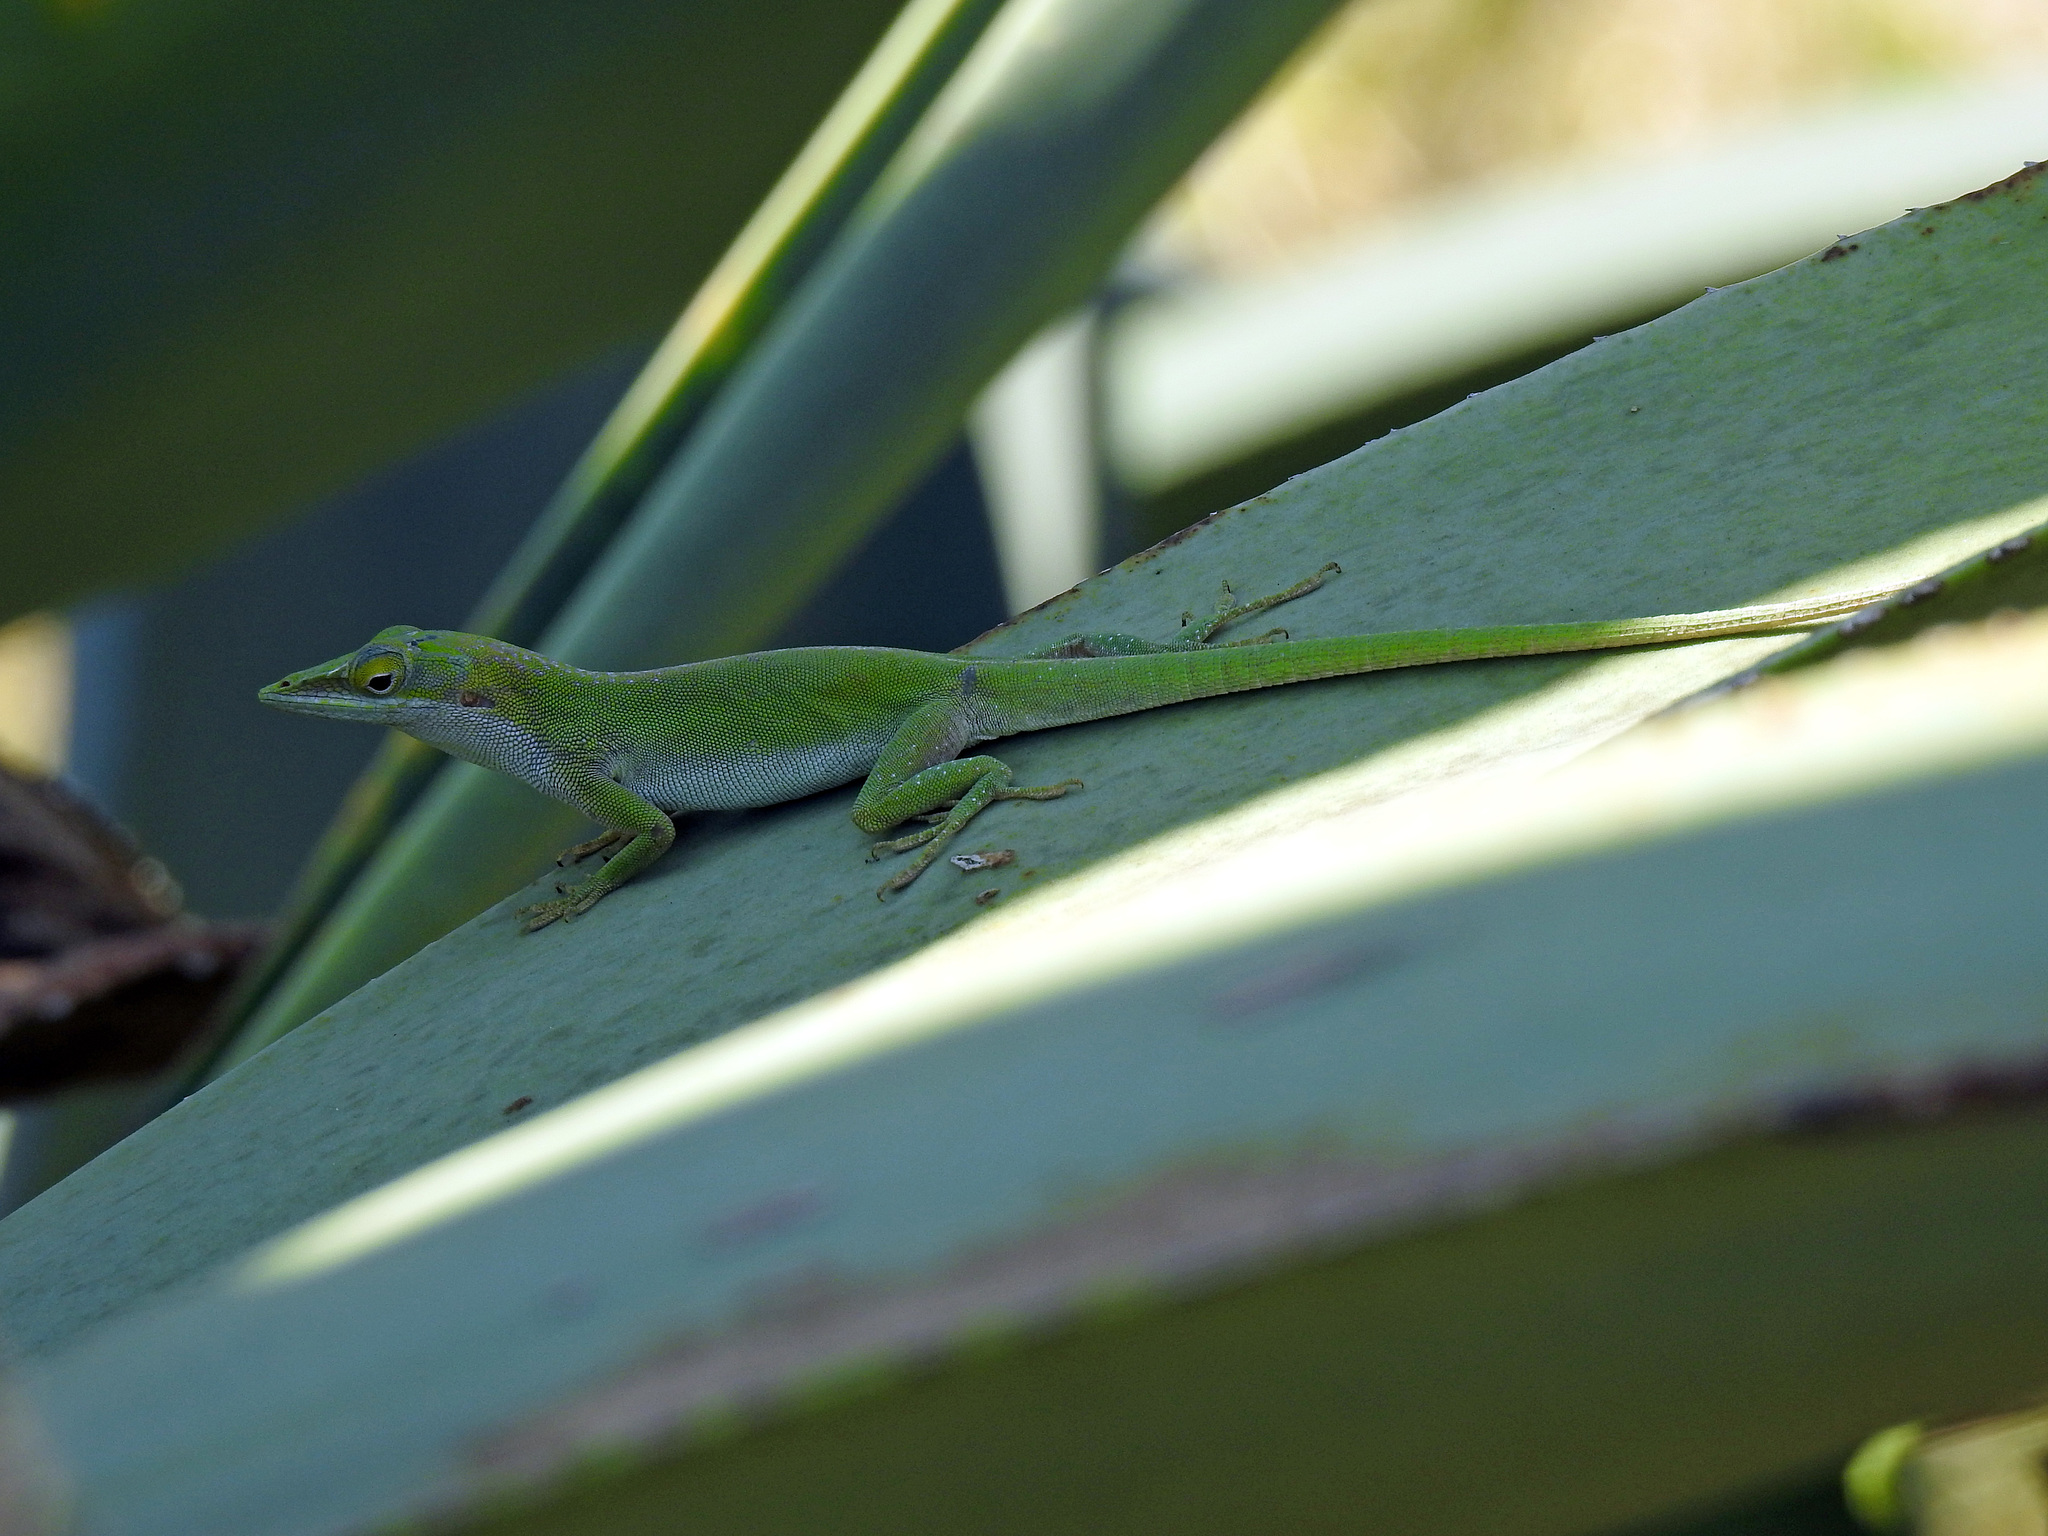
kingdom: Animalia
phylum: Chordata
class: Squamata
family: Dactyloidae
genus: Anolis
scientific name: Anolis porcatus
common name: Cuban green anole
